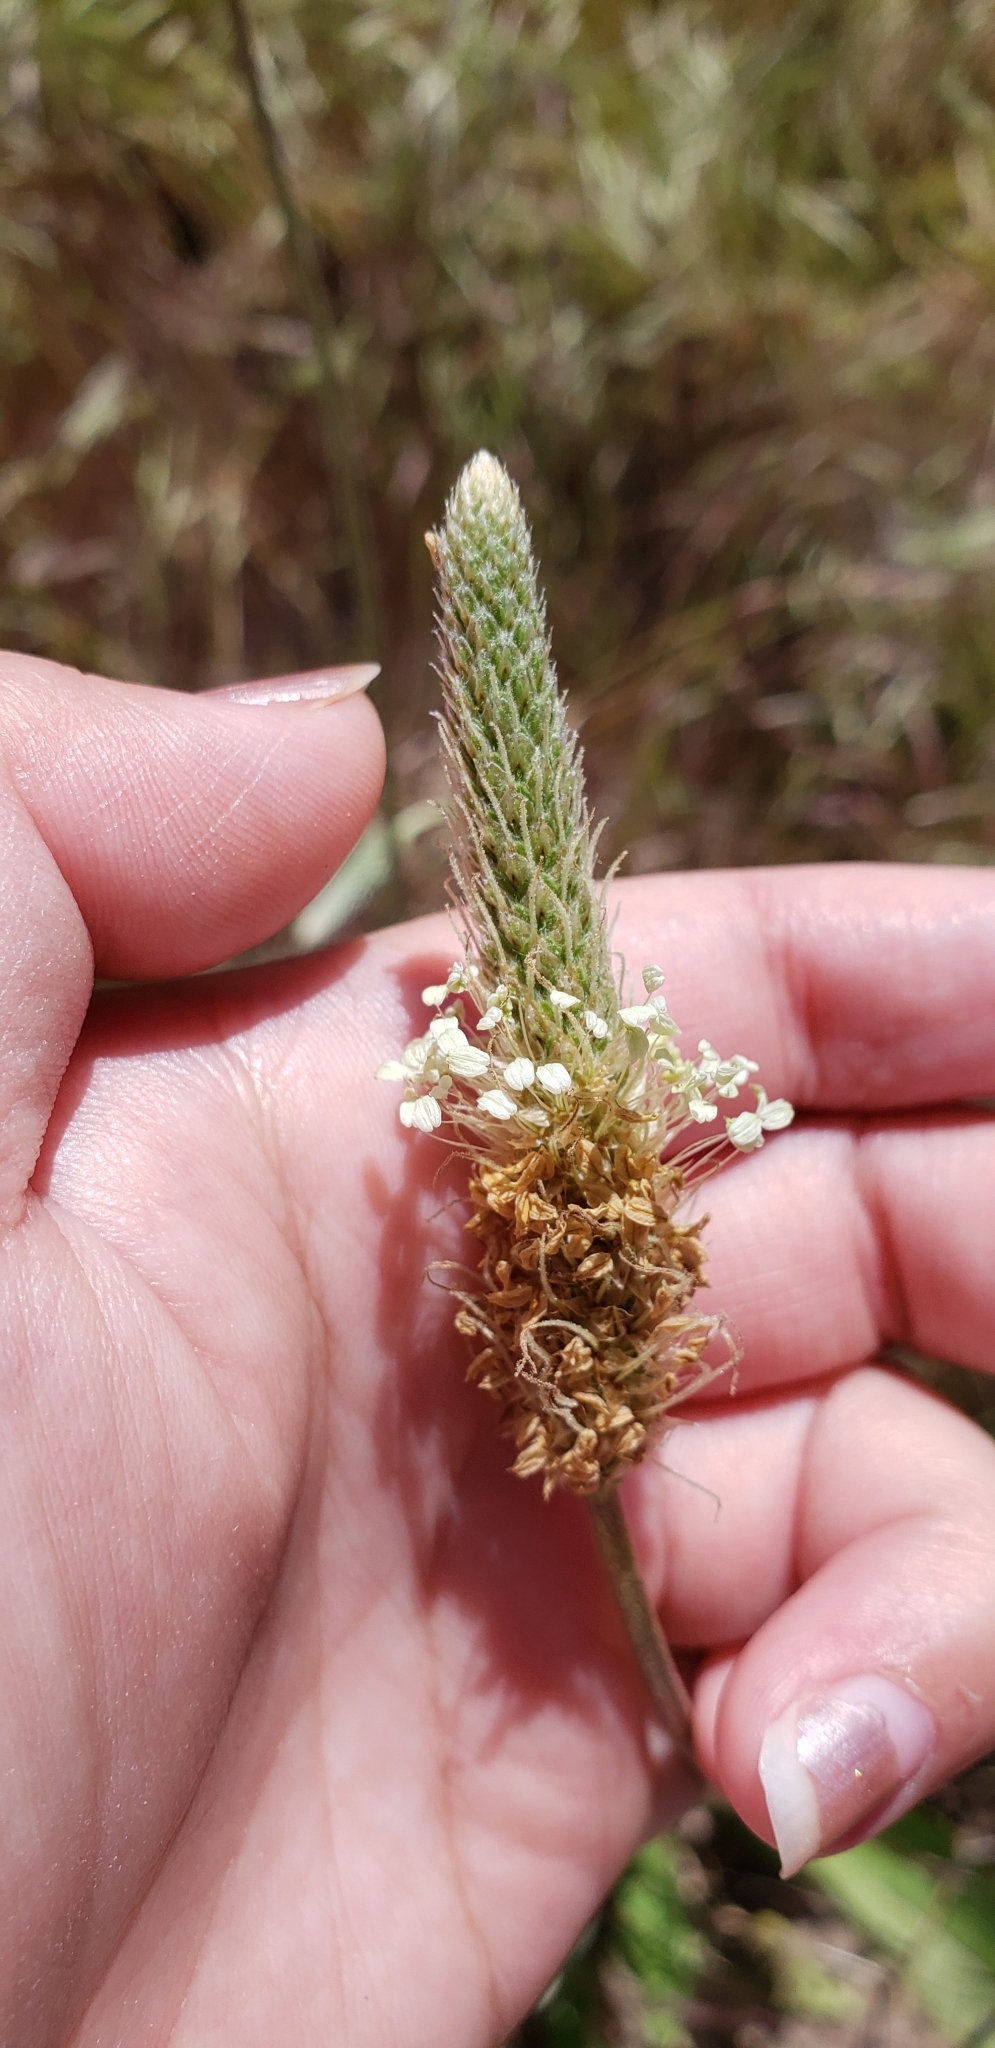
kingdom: Plantae
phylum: Tracheophyta
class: Magnoliopsida
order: Lamiales
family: Plantaginaceae
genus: Plantago
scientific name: Plantago lanceolata
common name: Ribwort plantain
